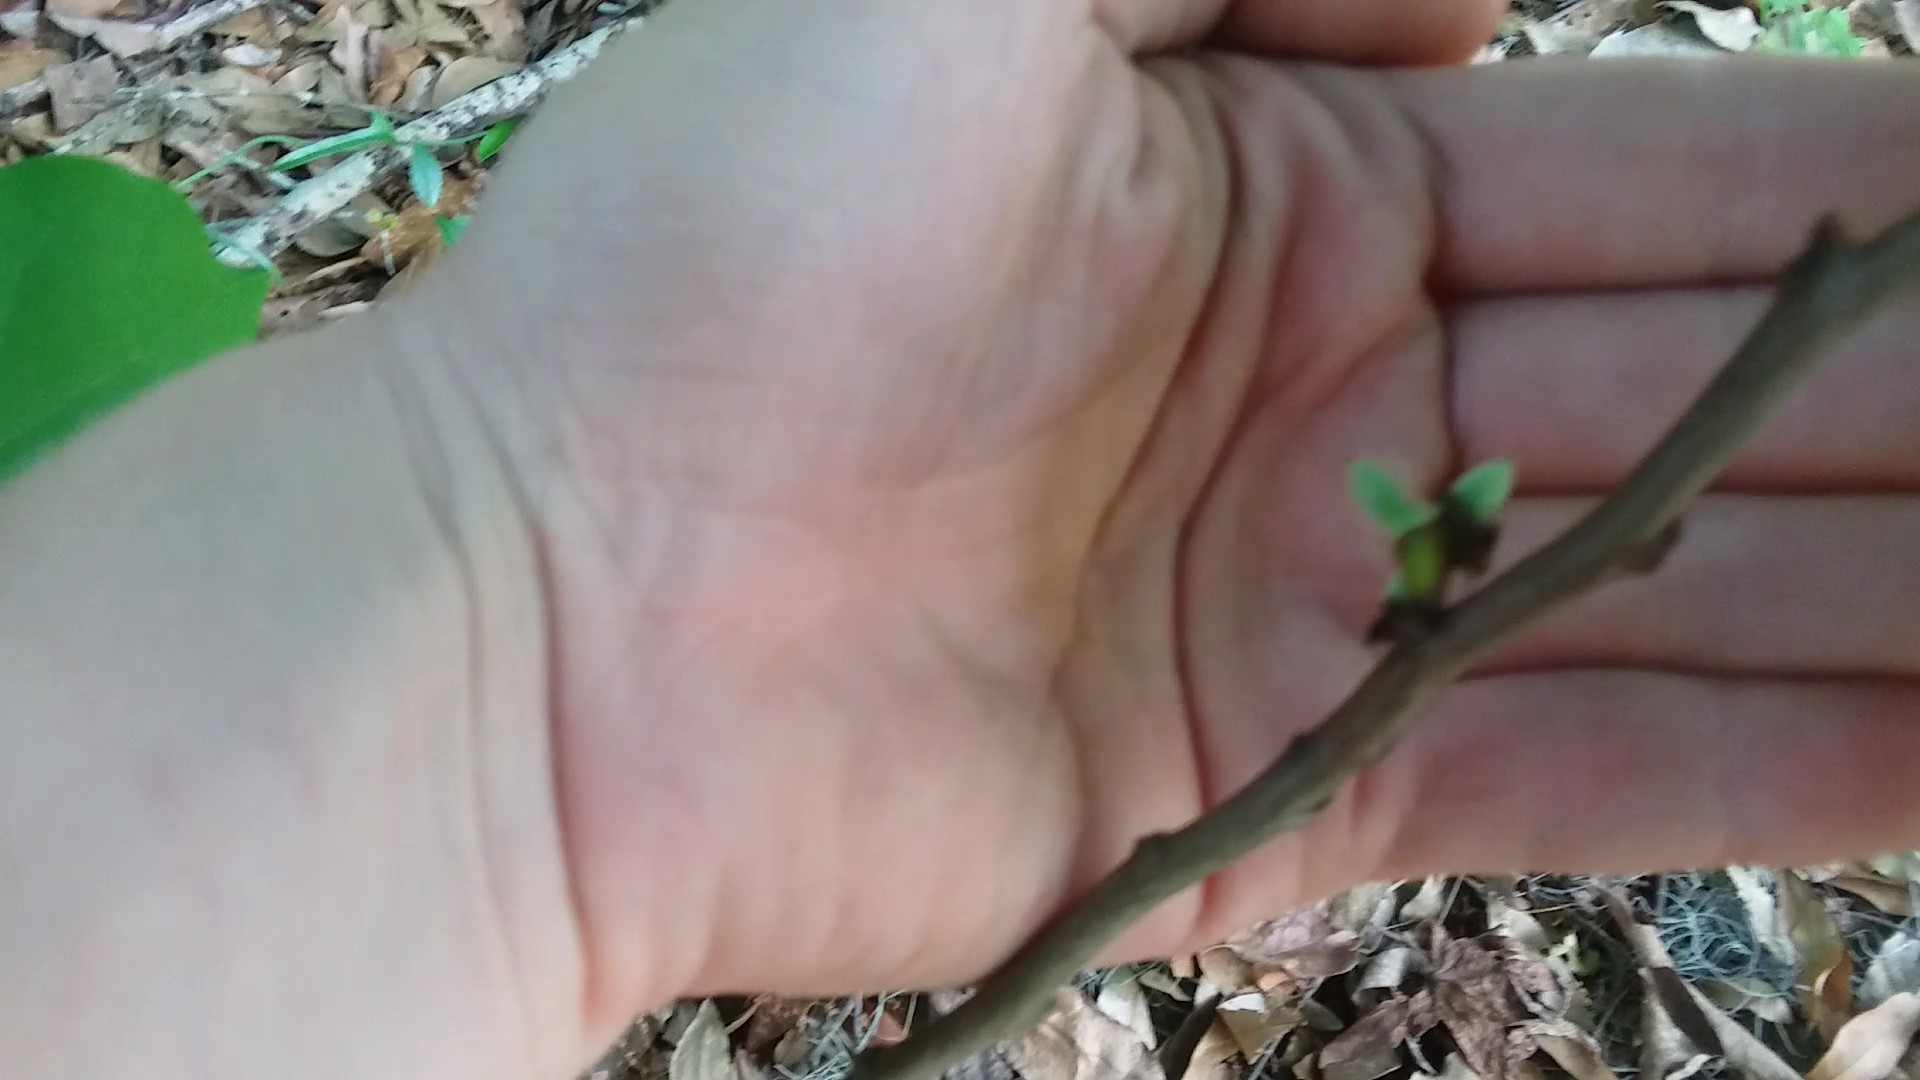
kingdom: Plantae
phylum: Tracheophyta
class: Magnoliopsida
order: Magnoliales
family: Annonaceae
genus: Asimina
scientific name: Asimina parviflora
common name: Dwarf pawpaw
